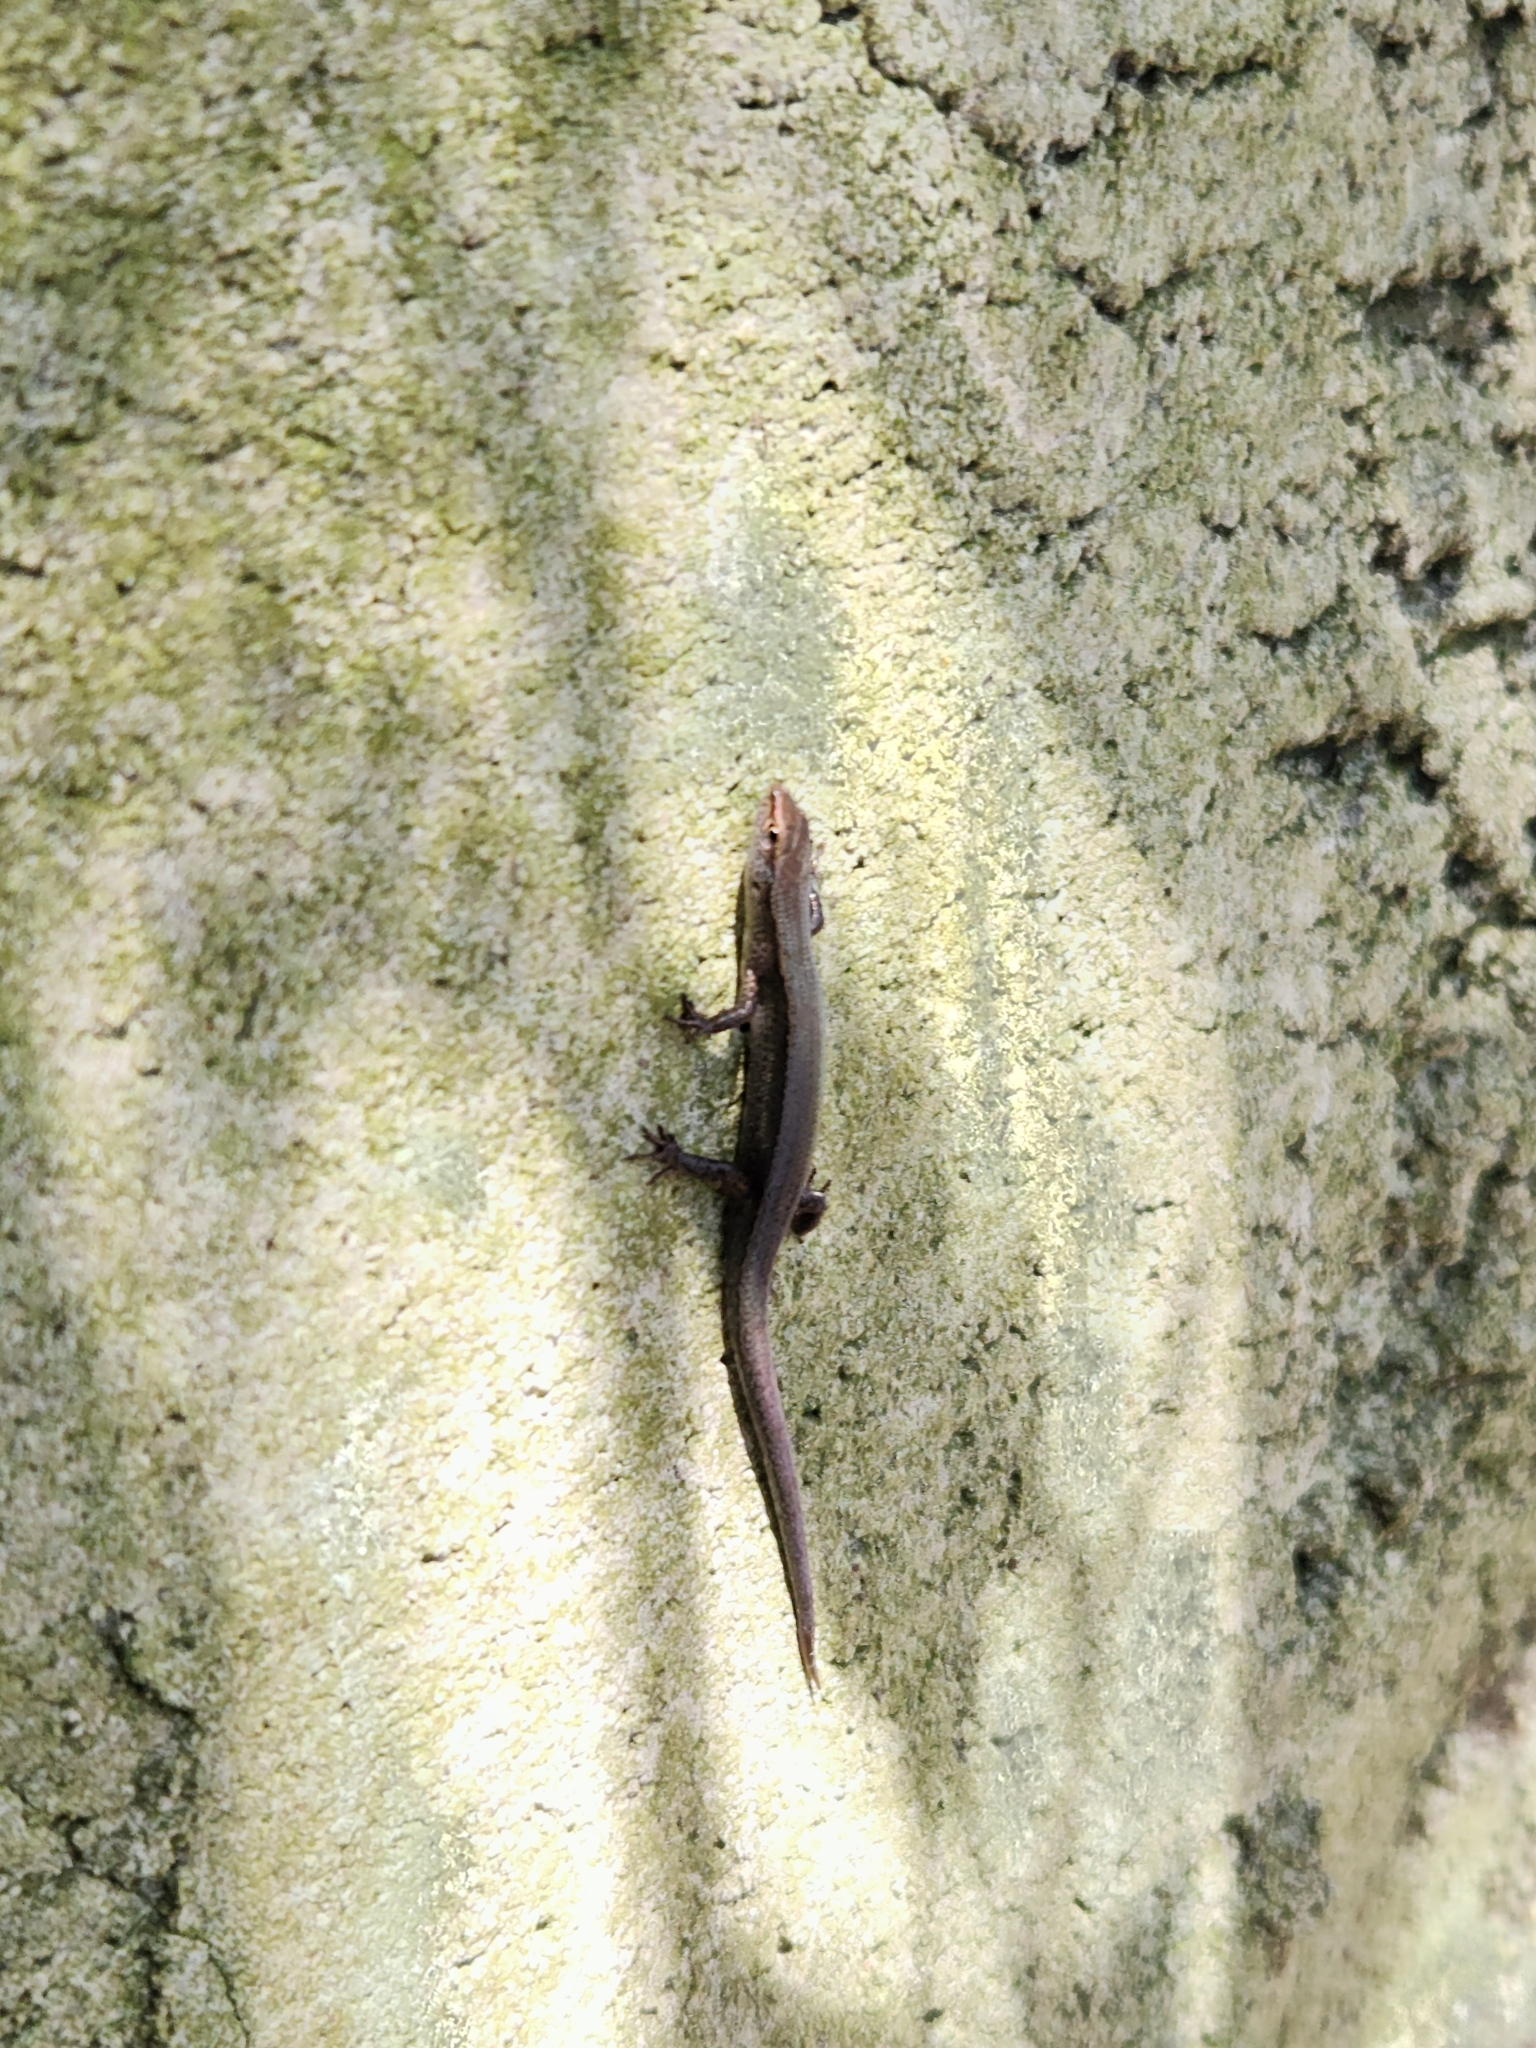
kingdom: Animalia
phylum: Chordata
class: Squamata
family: Scincidae
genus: Lampropholis
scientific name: Lampropholis delicata
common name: Plague skink
